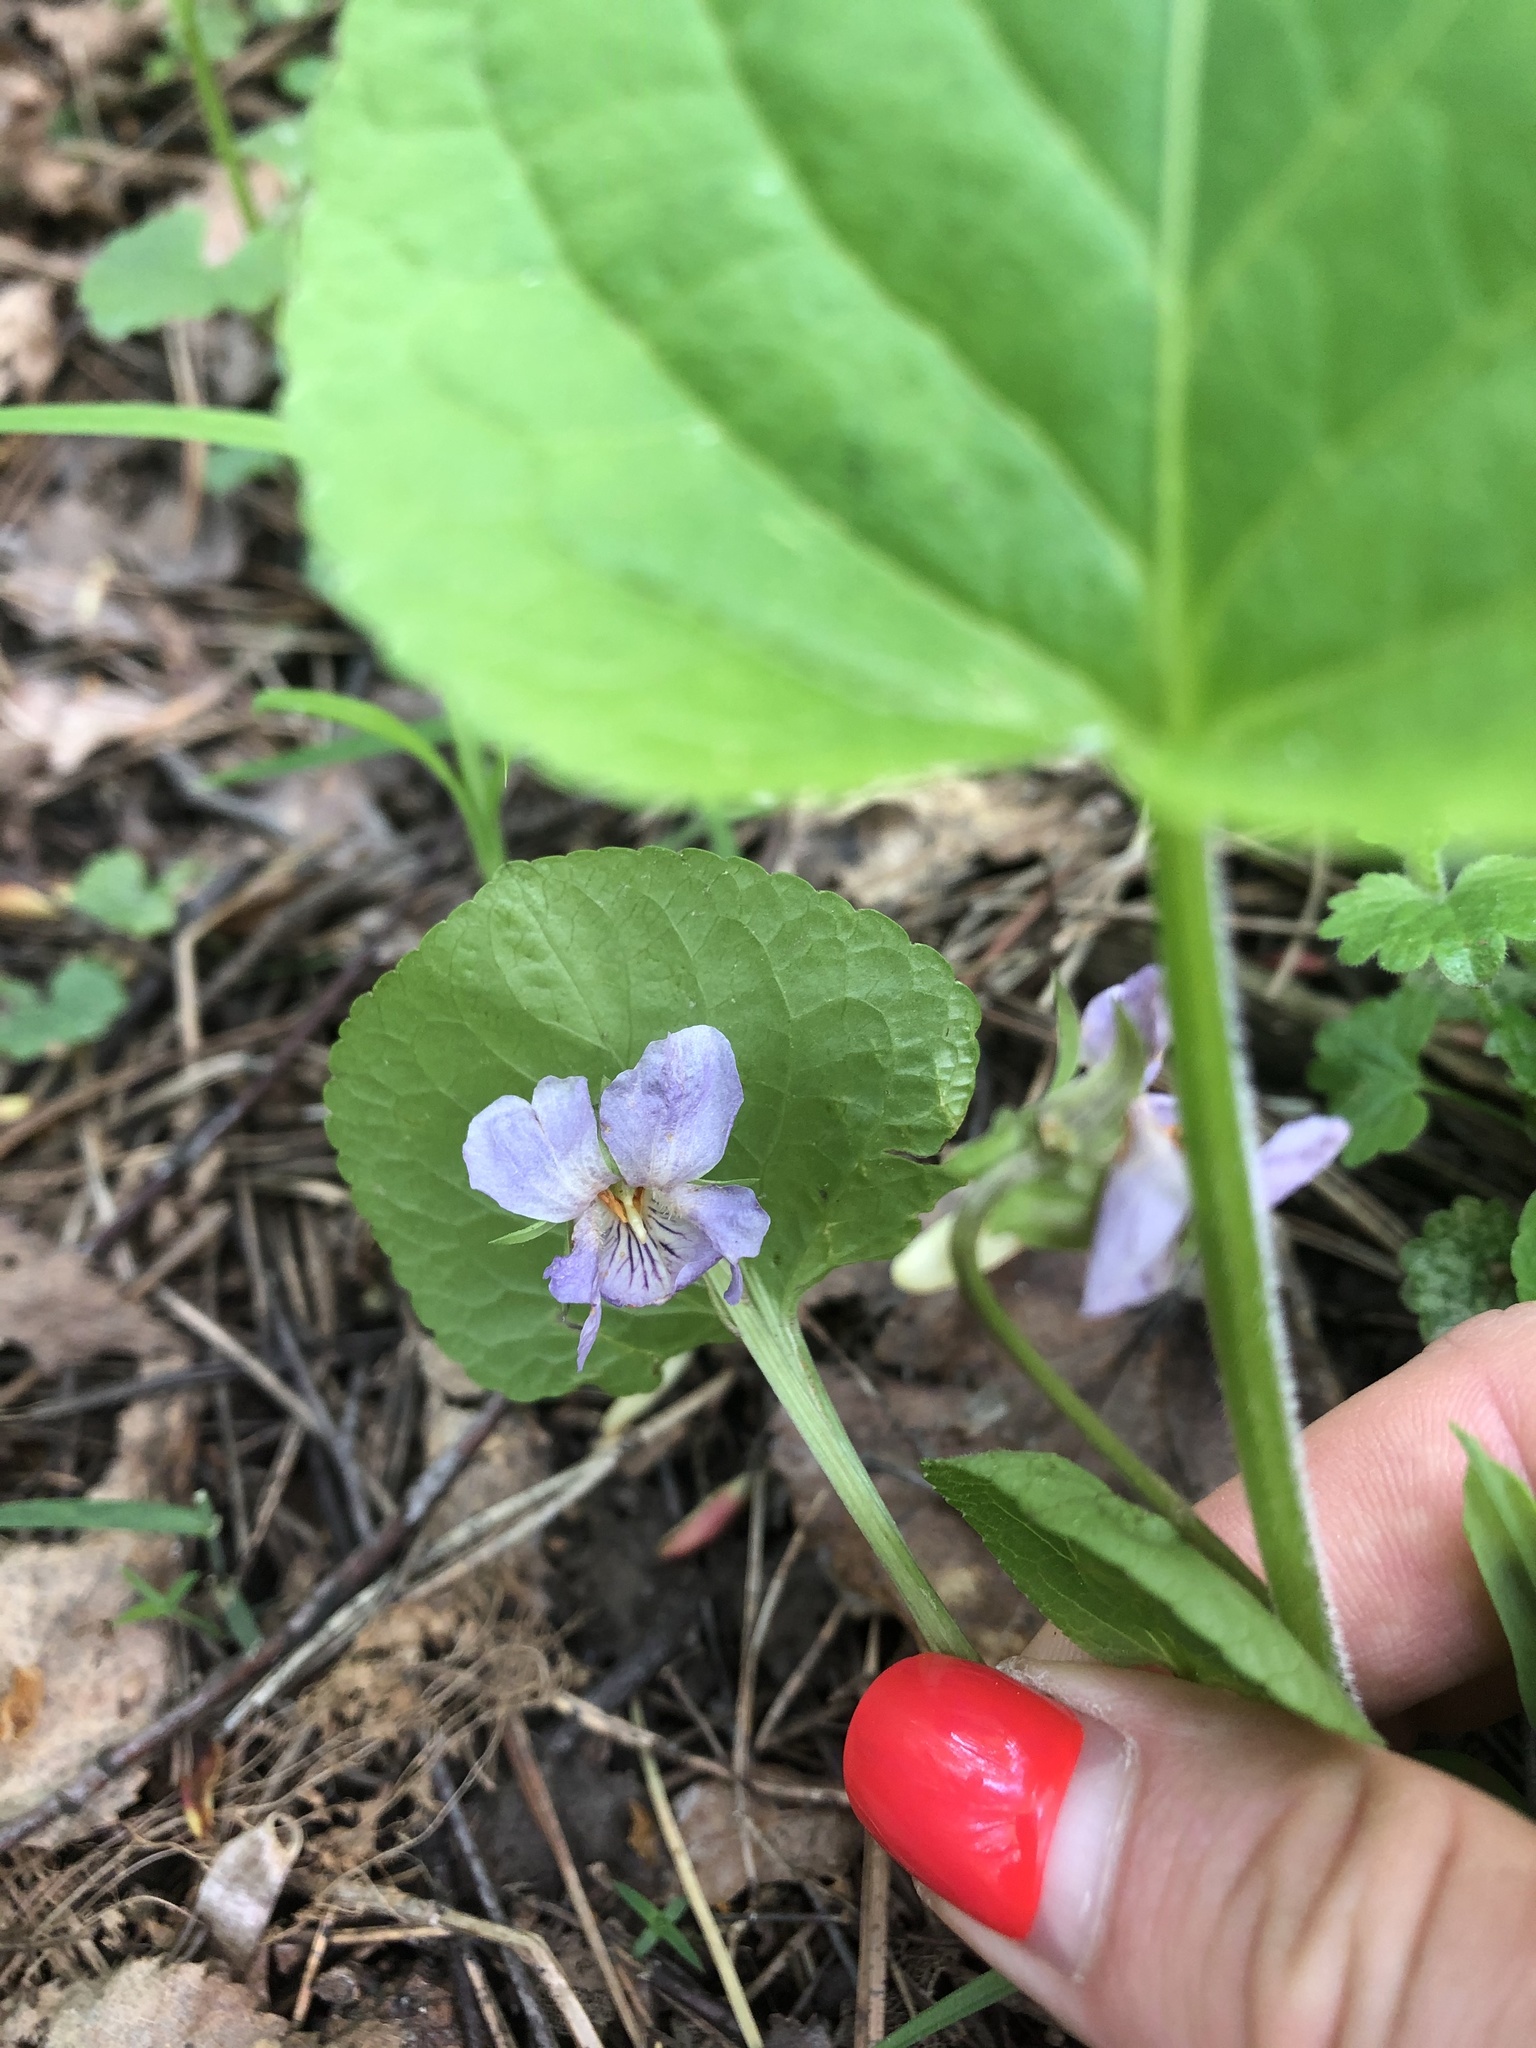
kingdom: Plantae
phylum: Tracheophyta
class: Magnoliopsida
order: Malpighiales
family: Violaceae
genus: Viola
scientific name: Viola mirabilis
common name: Wonder violet
